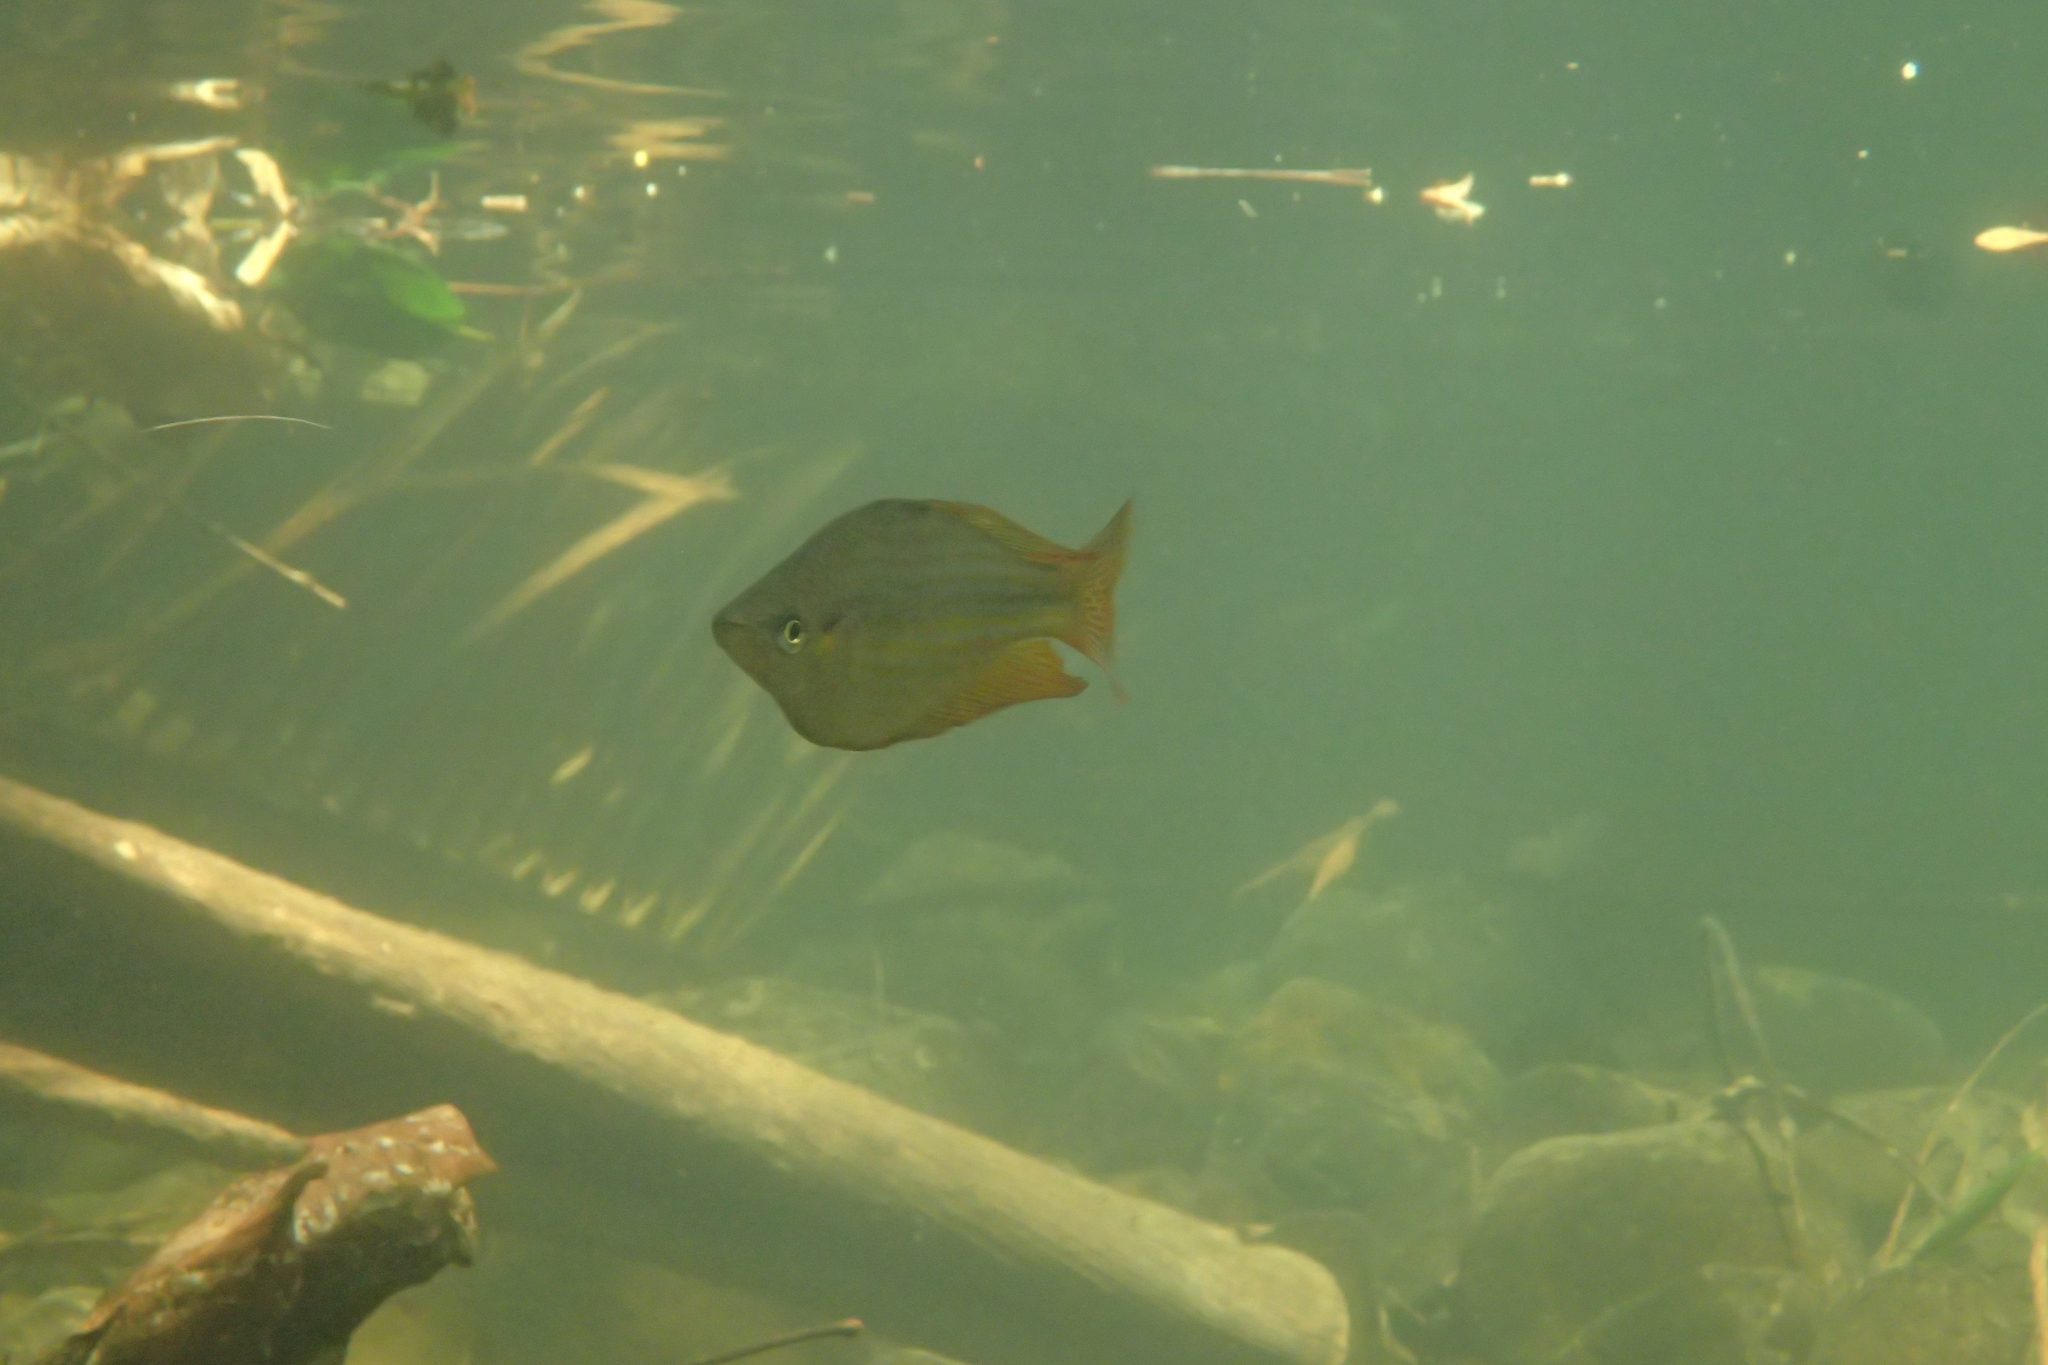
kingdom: Animalia
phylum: Chordata
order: Atheriniformes
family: Melanotaeniidae
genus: Melanotaenia
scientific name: Melanotaenia splendida
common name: Checkered rainbowfish
